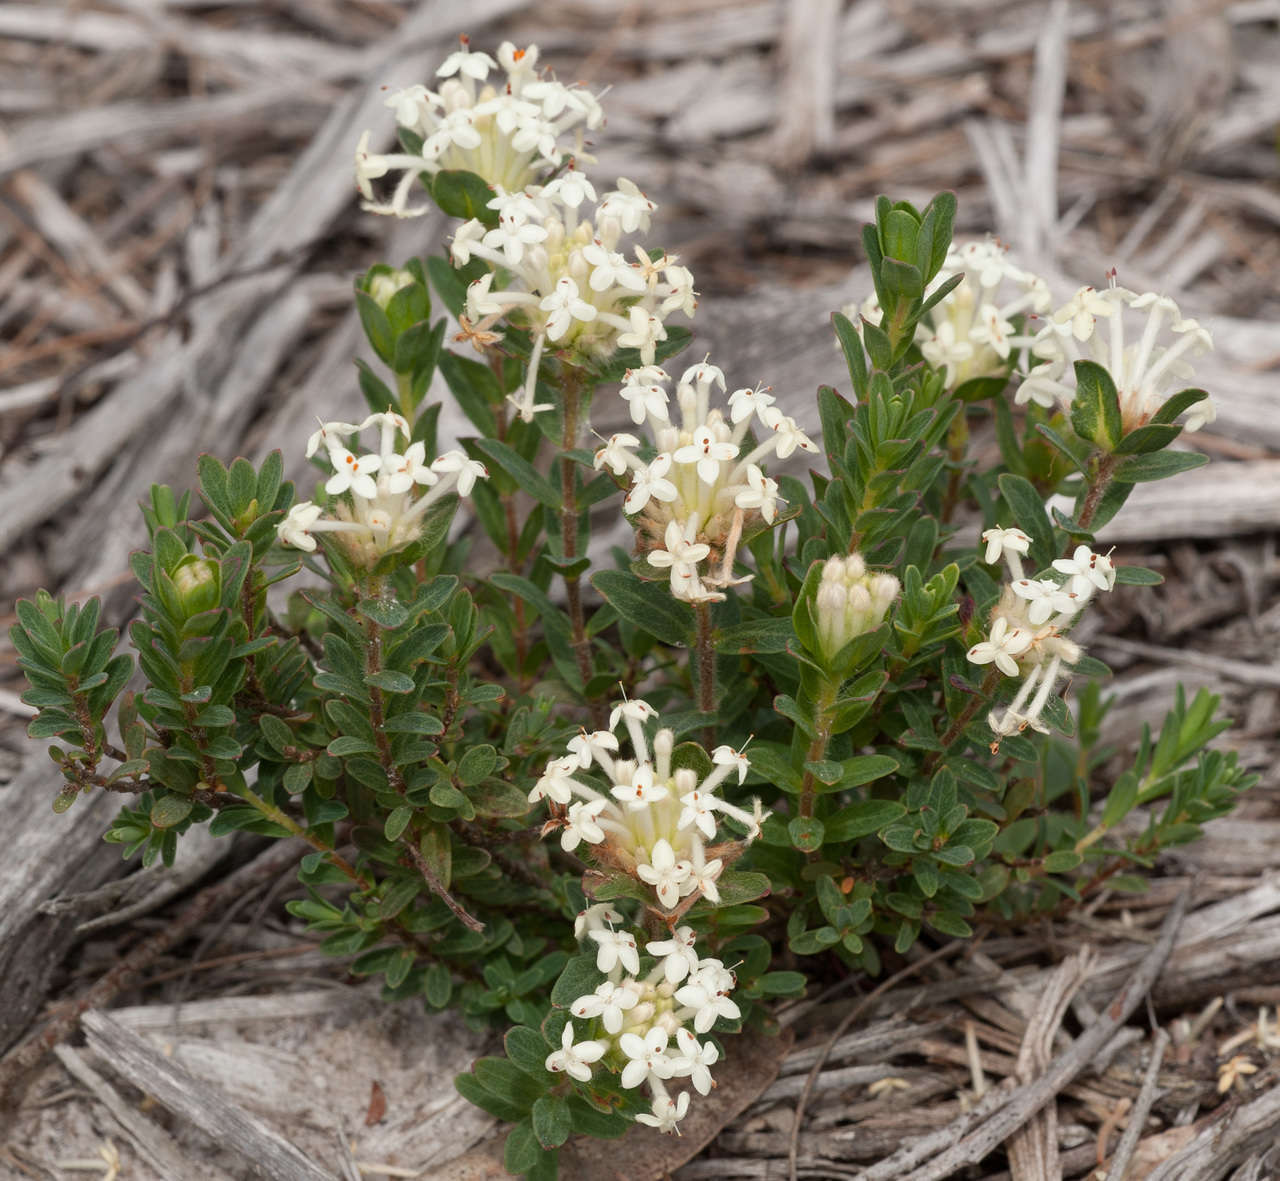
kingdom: Plantae
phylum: Tracheophyta
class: Magnoliopsida
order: Malvales
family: Thymelaeaceae
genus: Pimelea
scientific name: Pimelea humilis
